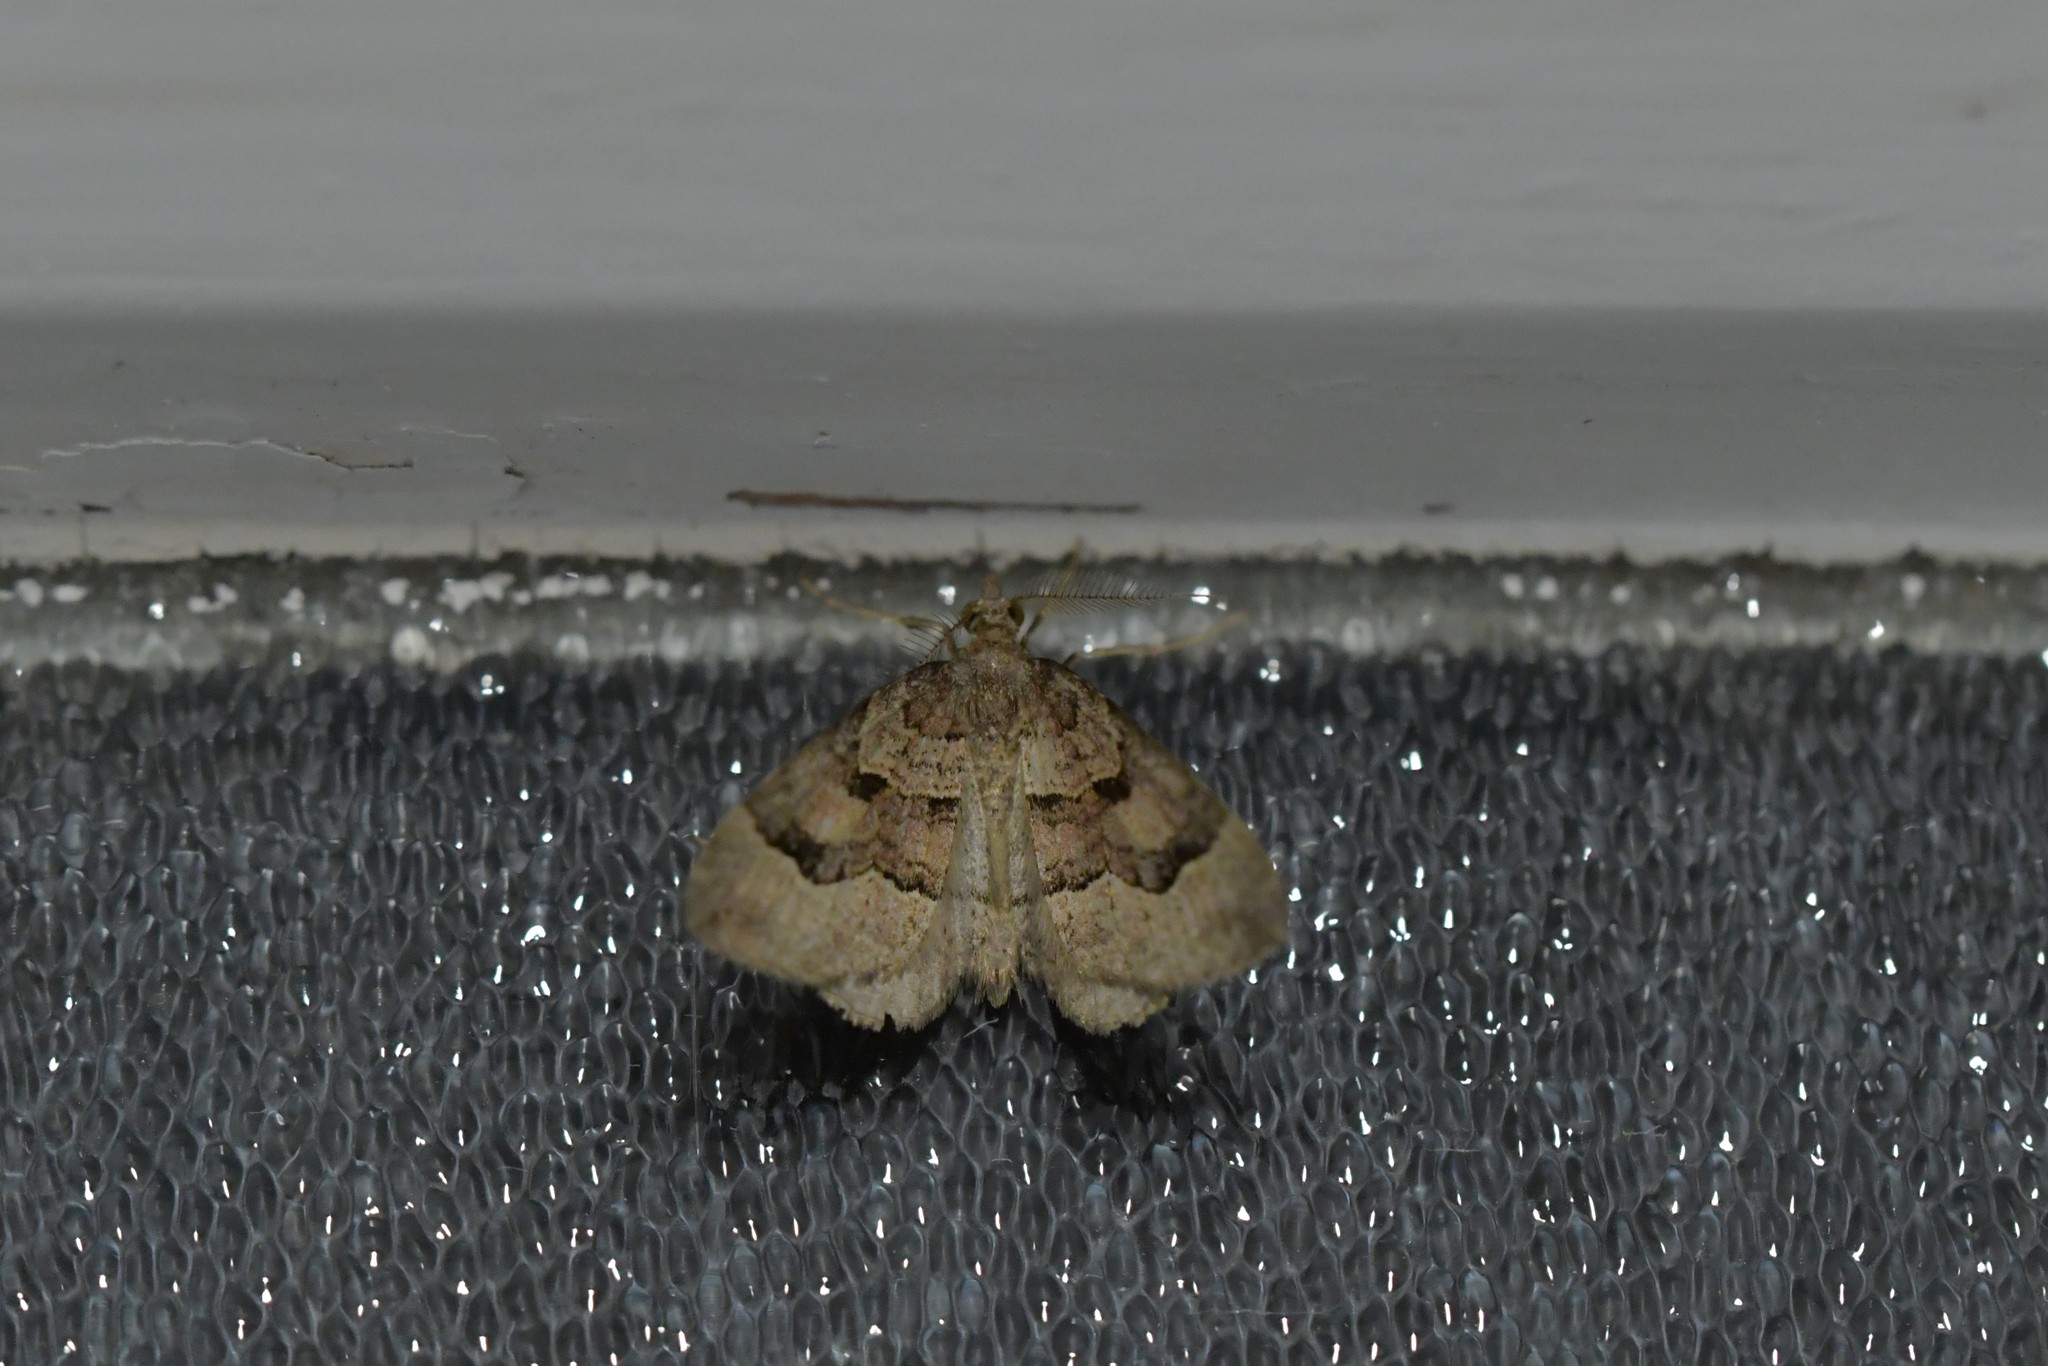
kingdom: Animalia
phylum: Arthropoda
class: Insecta
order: Lepidoptera
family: Geometridae
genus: Epyaxa
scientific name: Epyaxa rosearia
